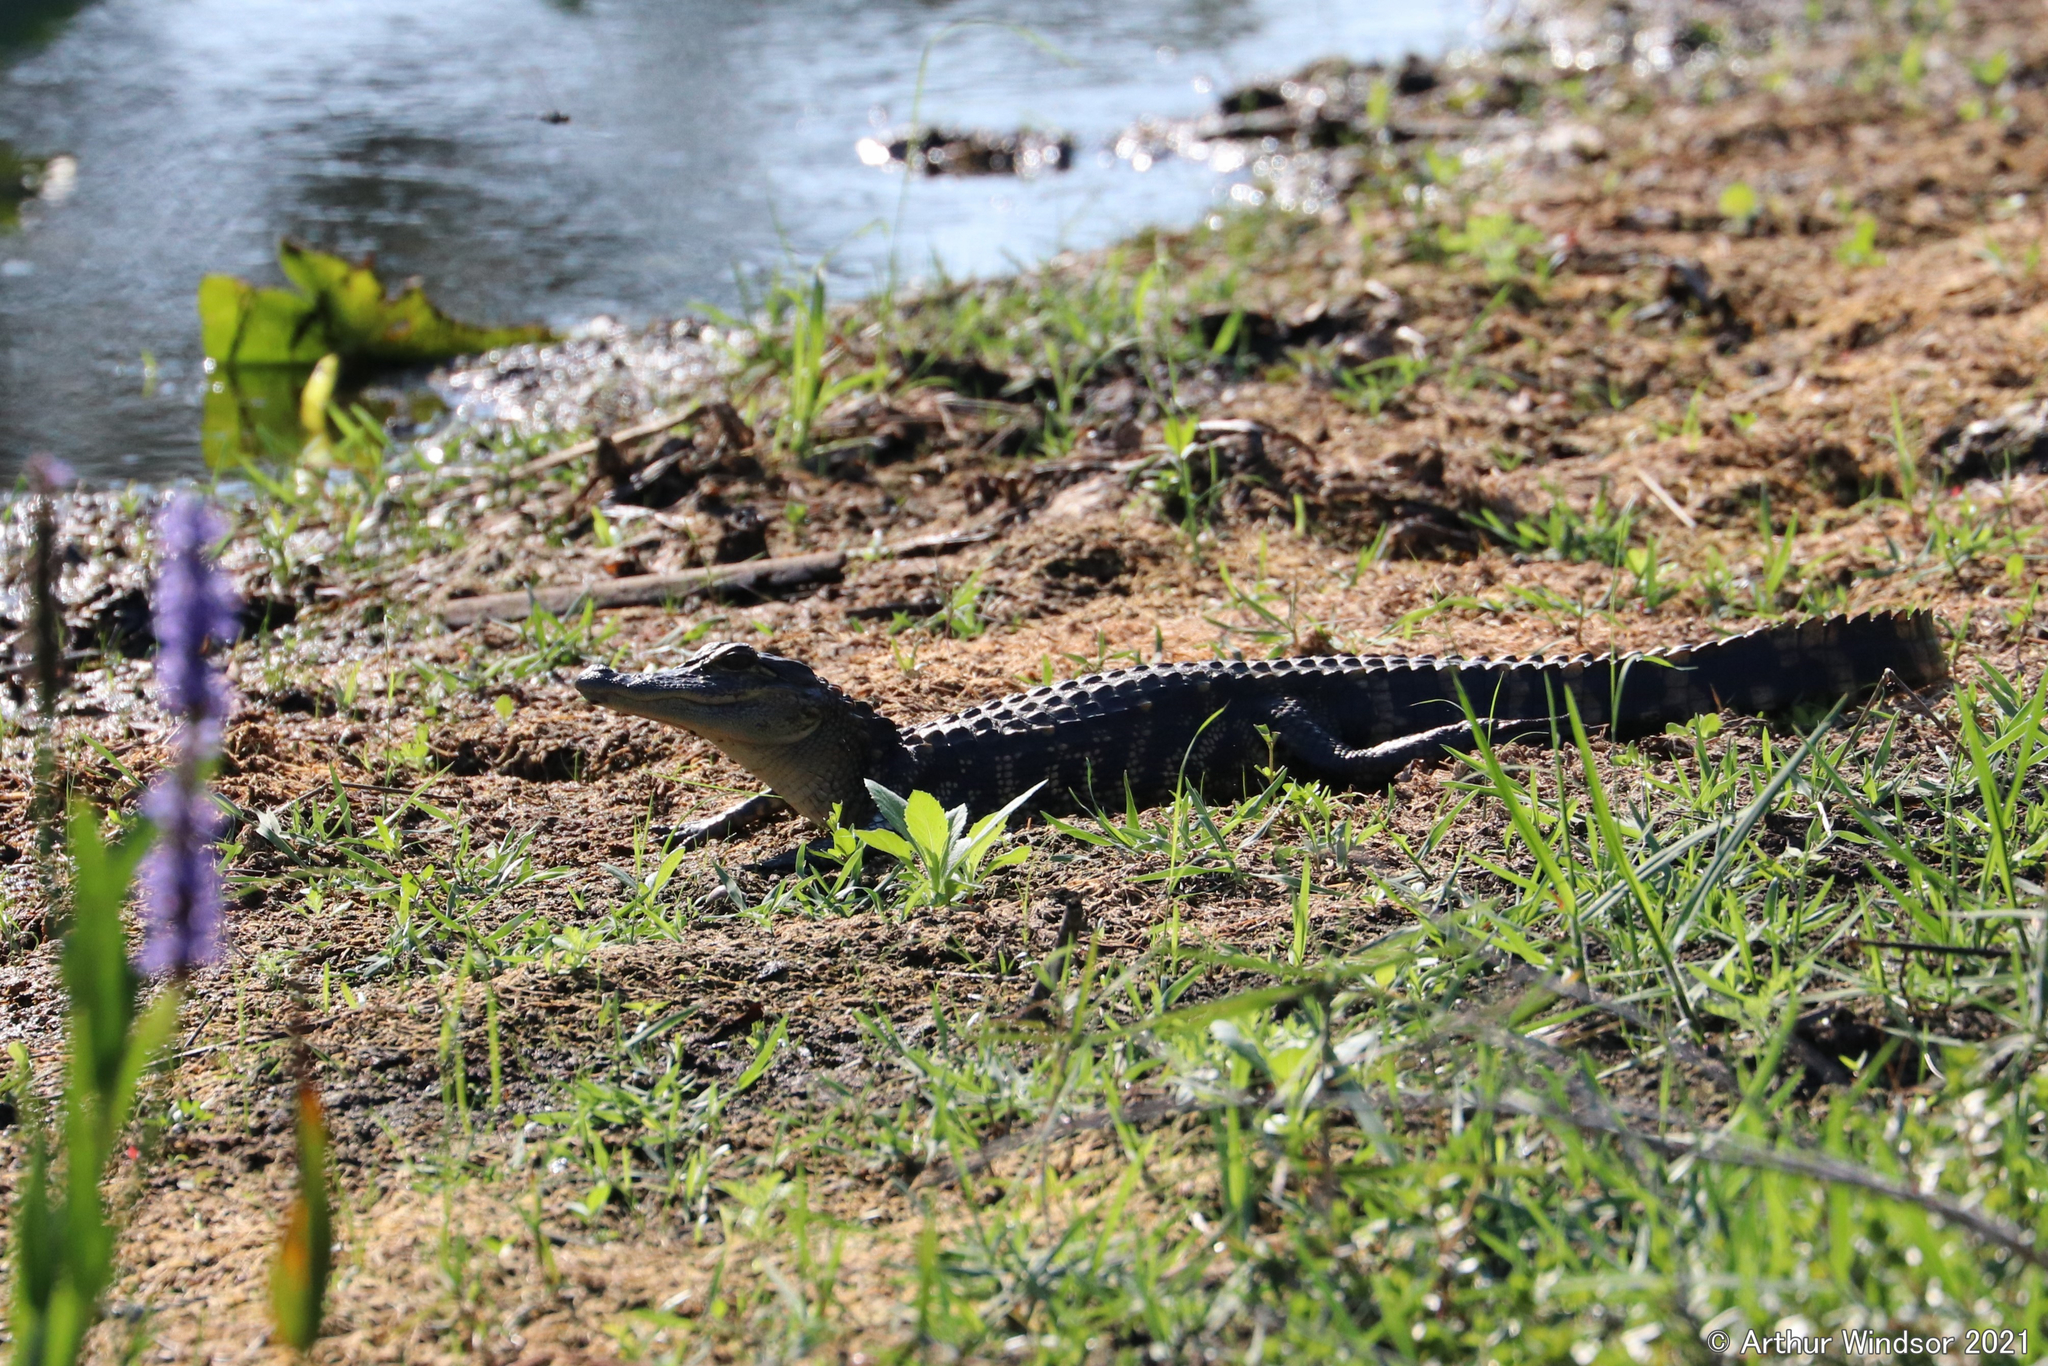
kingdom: Animalia
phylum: Chordata
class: Crocodylia
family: Alligatoridae
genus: Alligator
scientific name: Alligator mississippiensis
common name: American alligator
